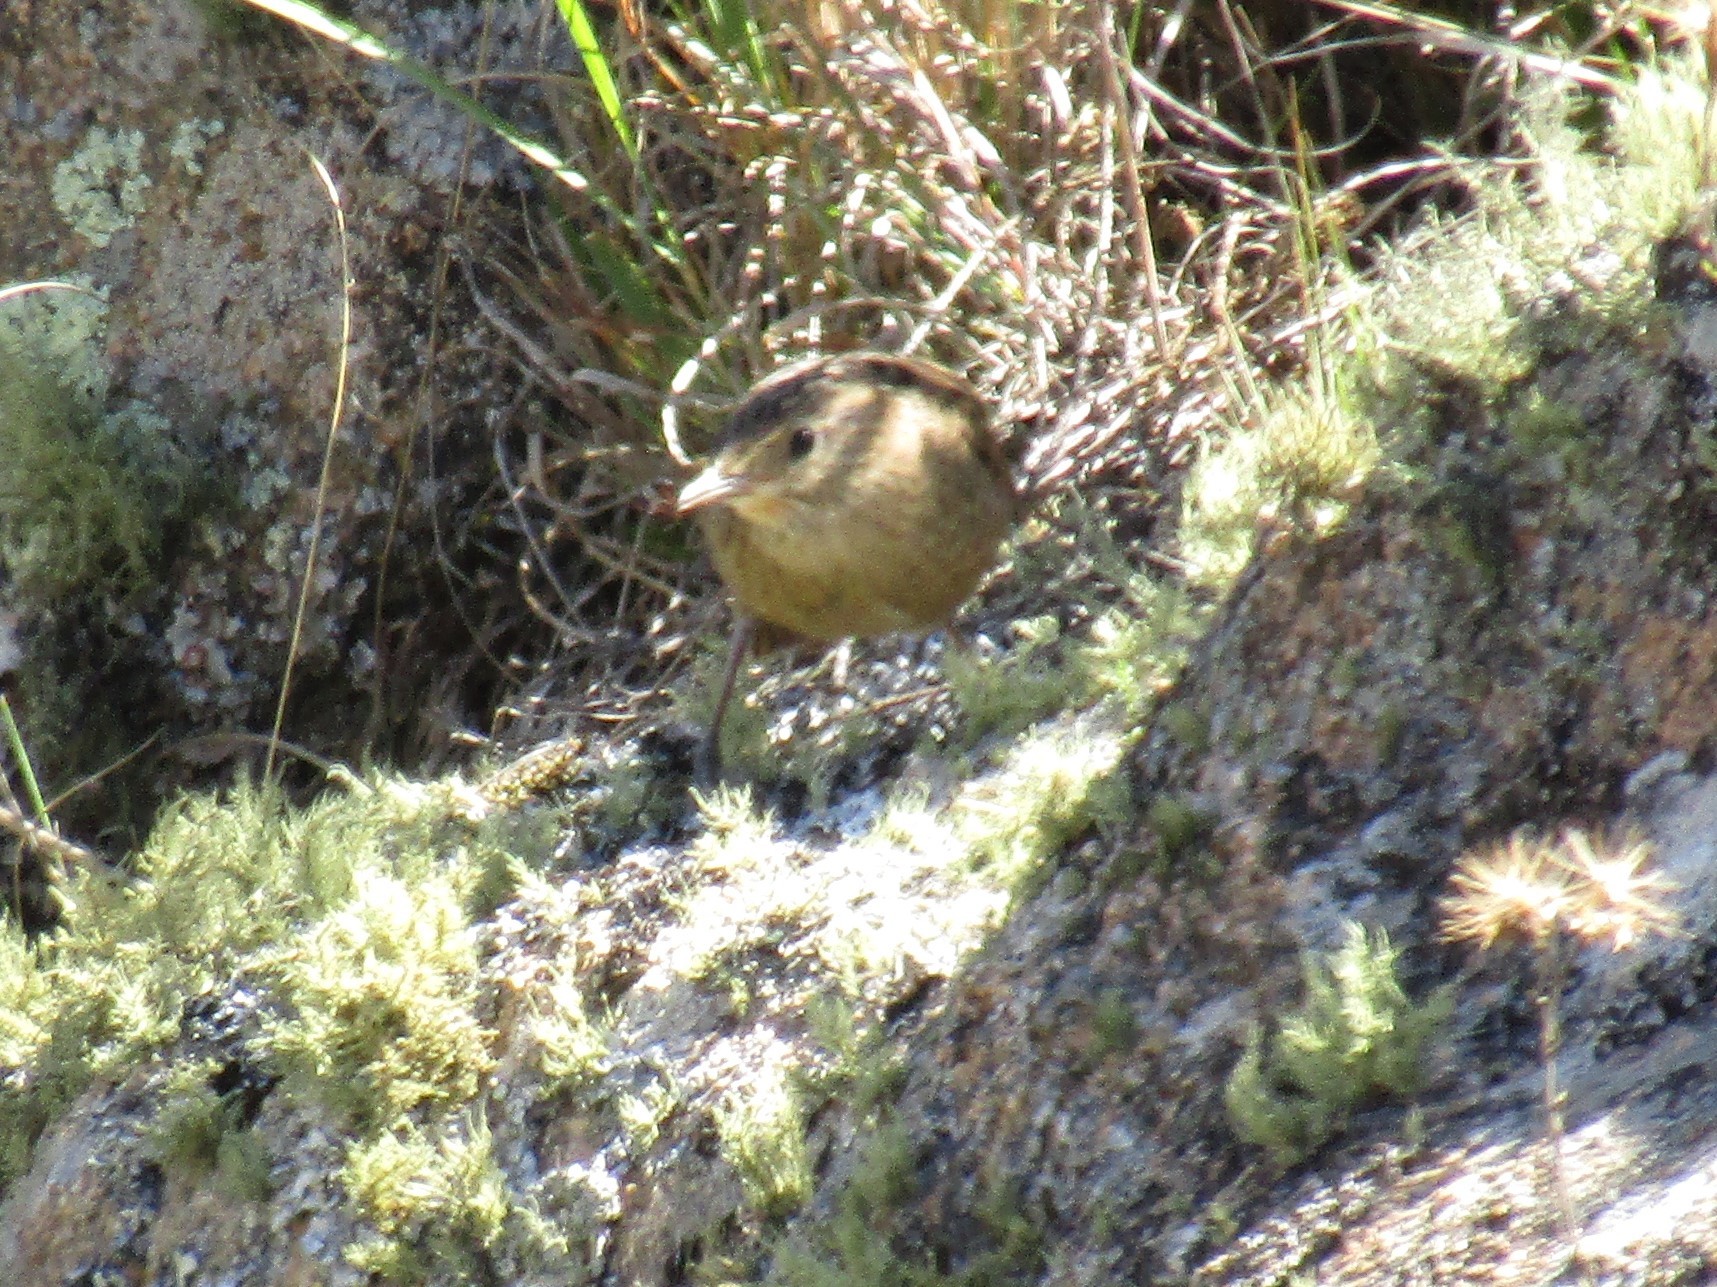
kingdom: Animalia
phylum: Chordata
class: Aves
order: Passeriformes
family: Furnariidae
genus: Asthenes
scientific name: Asthenes wyatti
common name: Streak-backed canastero
